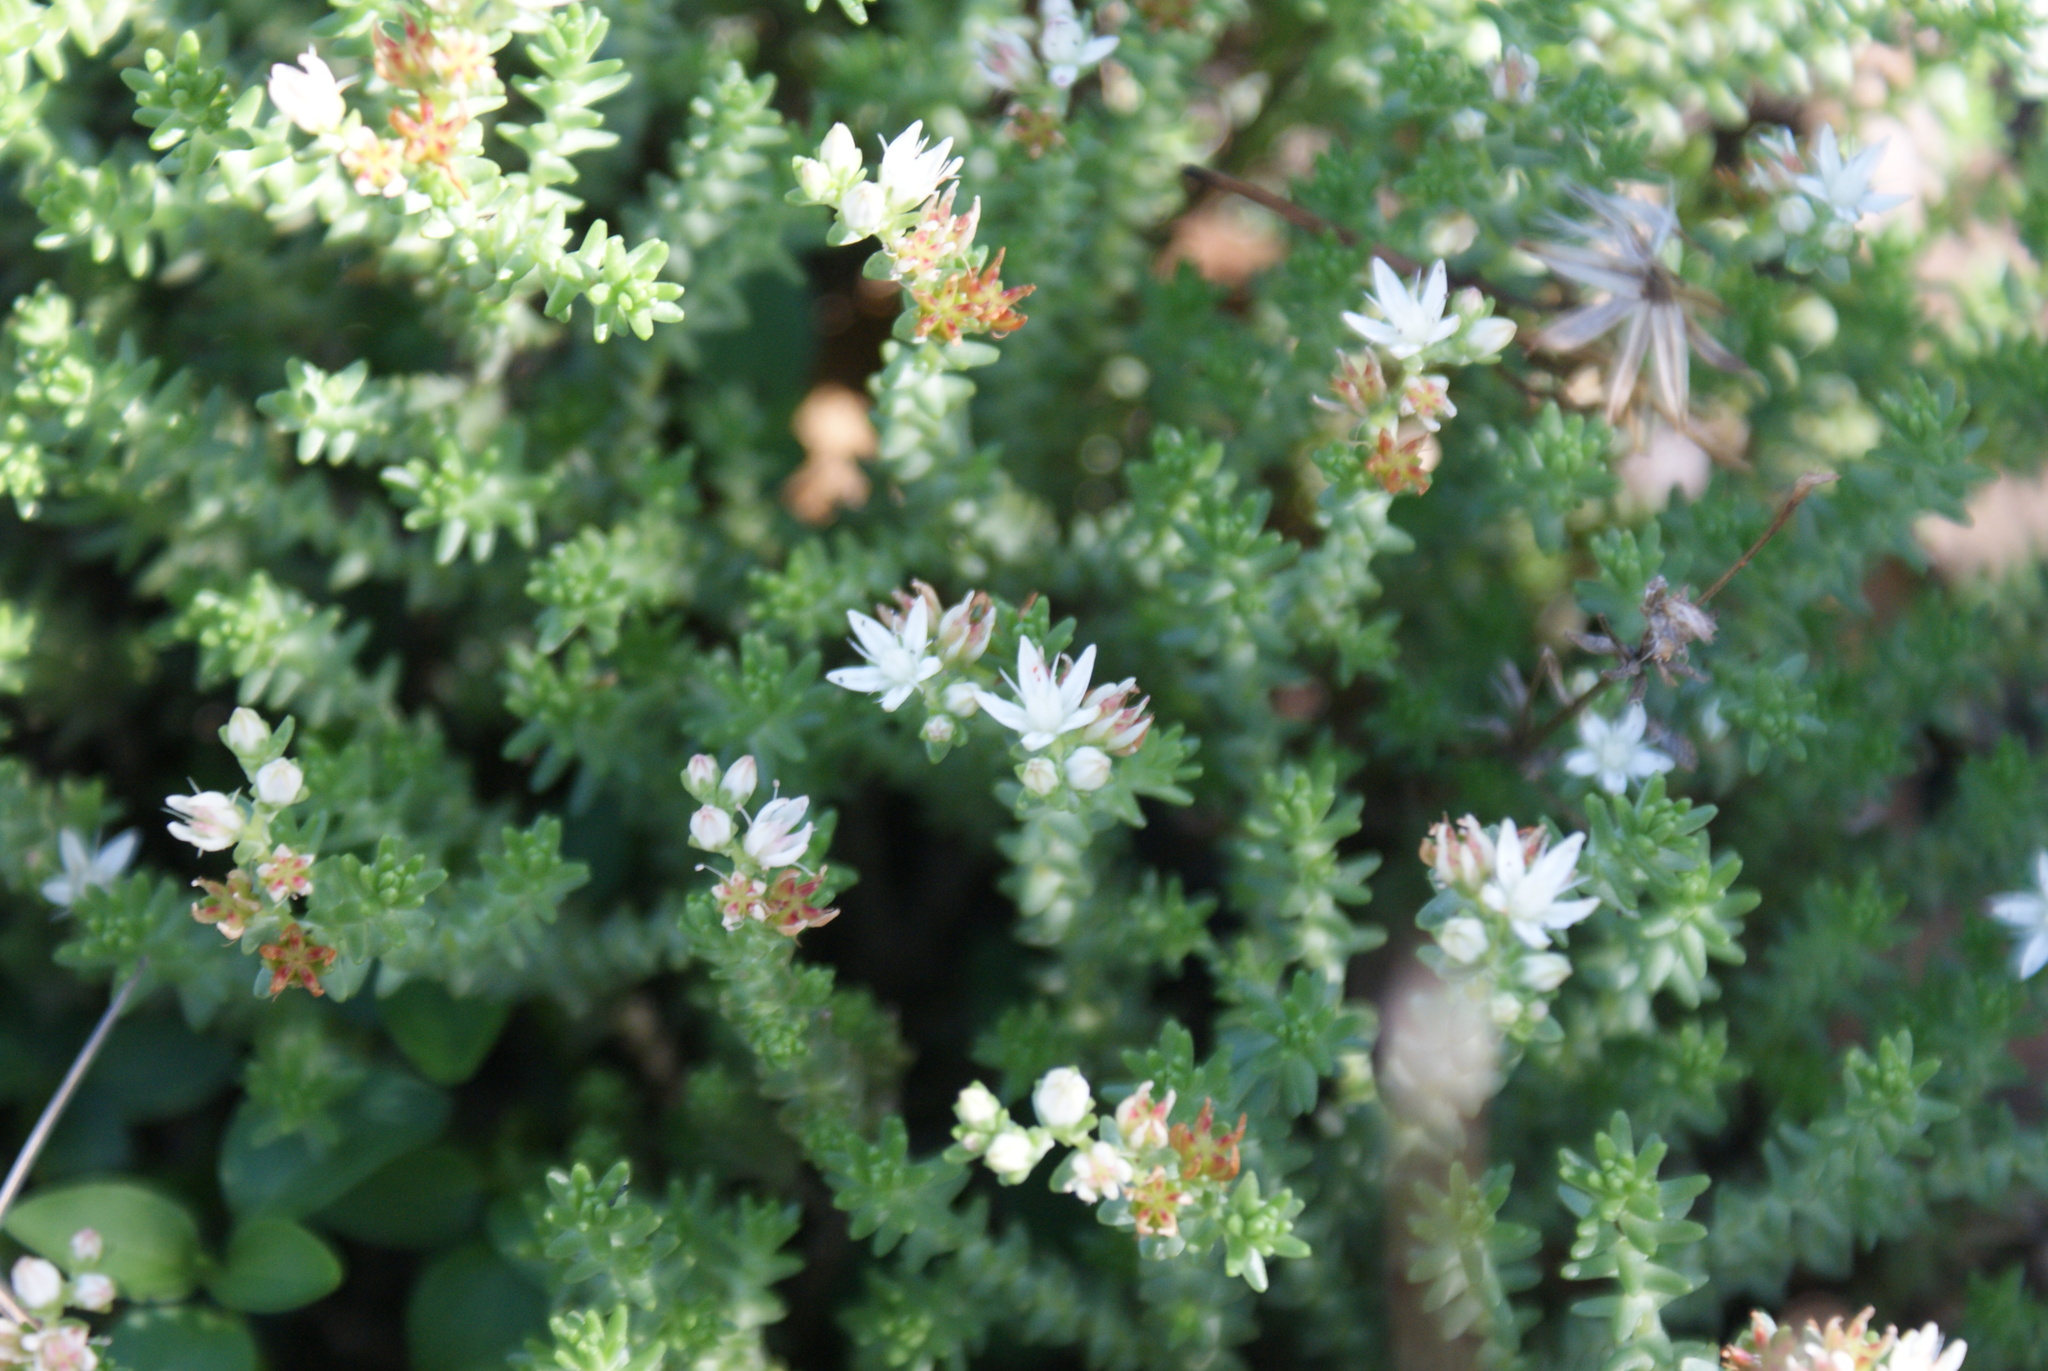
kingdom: Plantae
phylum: Tracheophyta
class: Magnoliopsida
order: Saxifragales
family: Crassulaceae
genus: Sedum
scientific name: Sedum moranense
